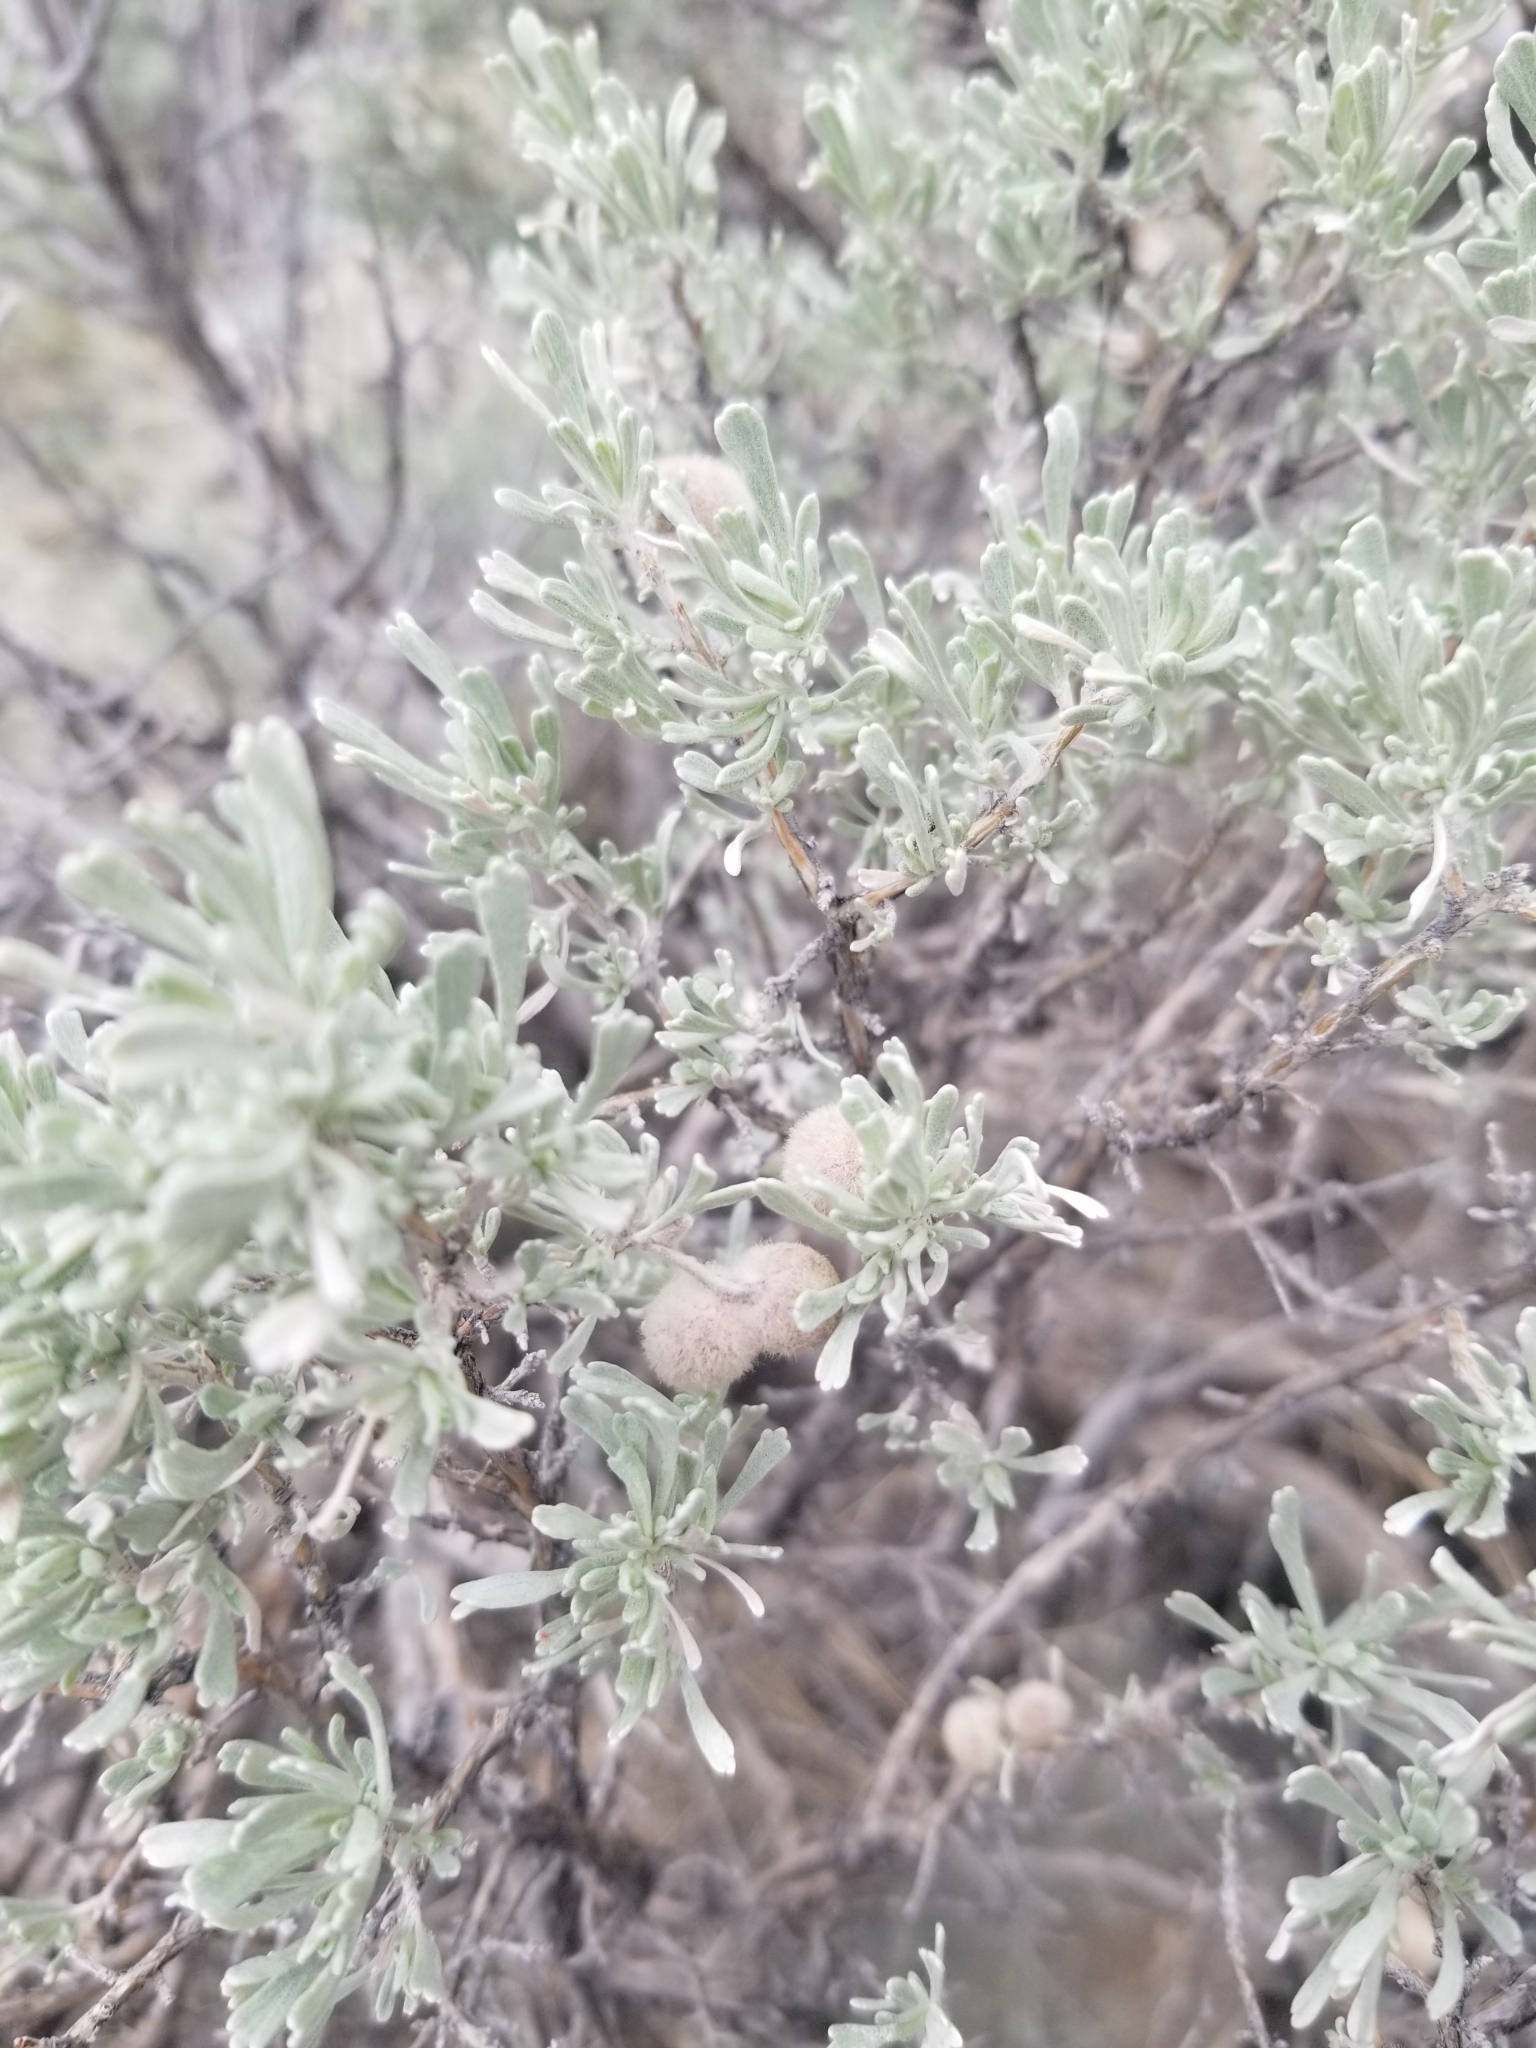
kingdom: Animalia
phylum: Arthropoda
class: Insecta
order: Diptera
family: Cecidomyiidae
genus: Rhopalomyia
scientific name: Rhopalomyia hirtipomum
